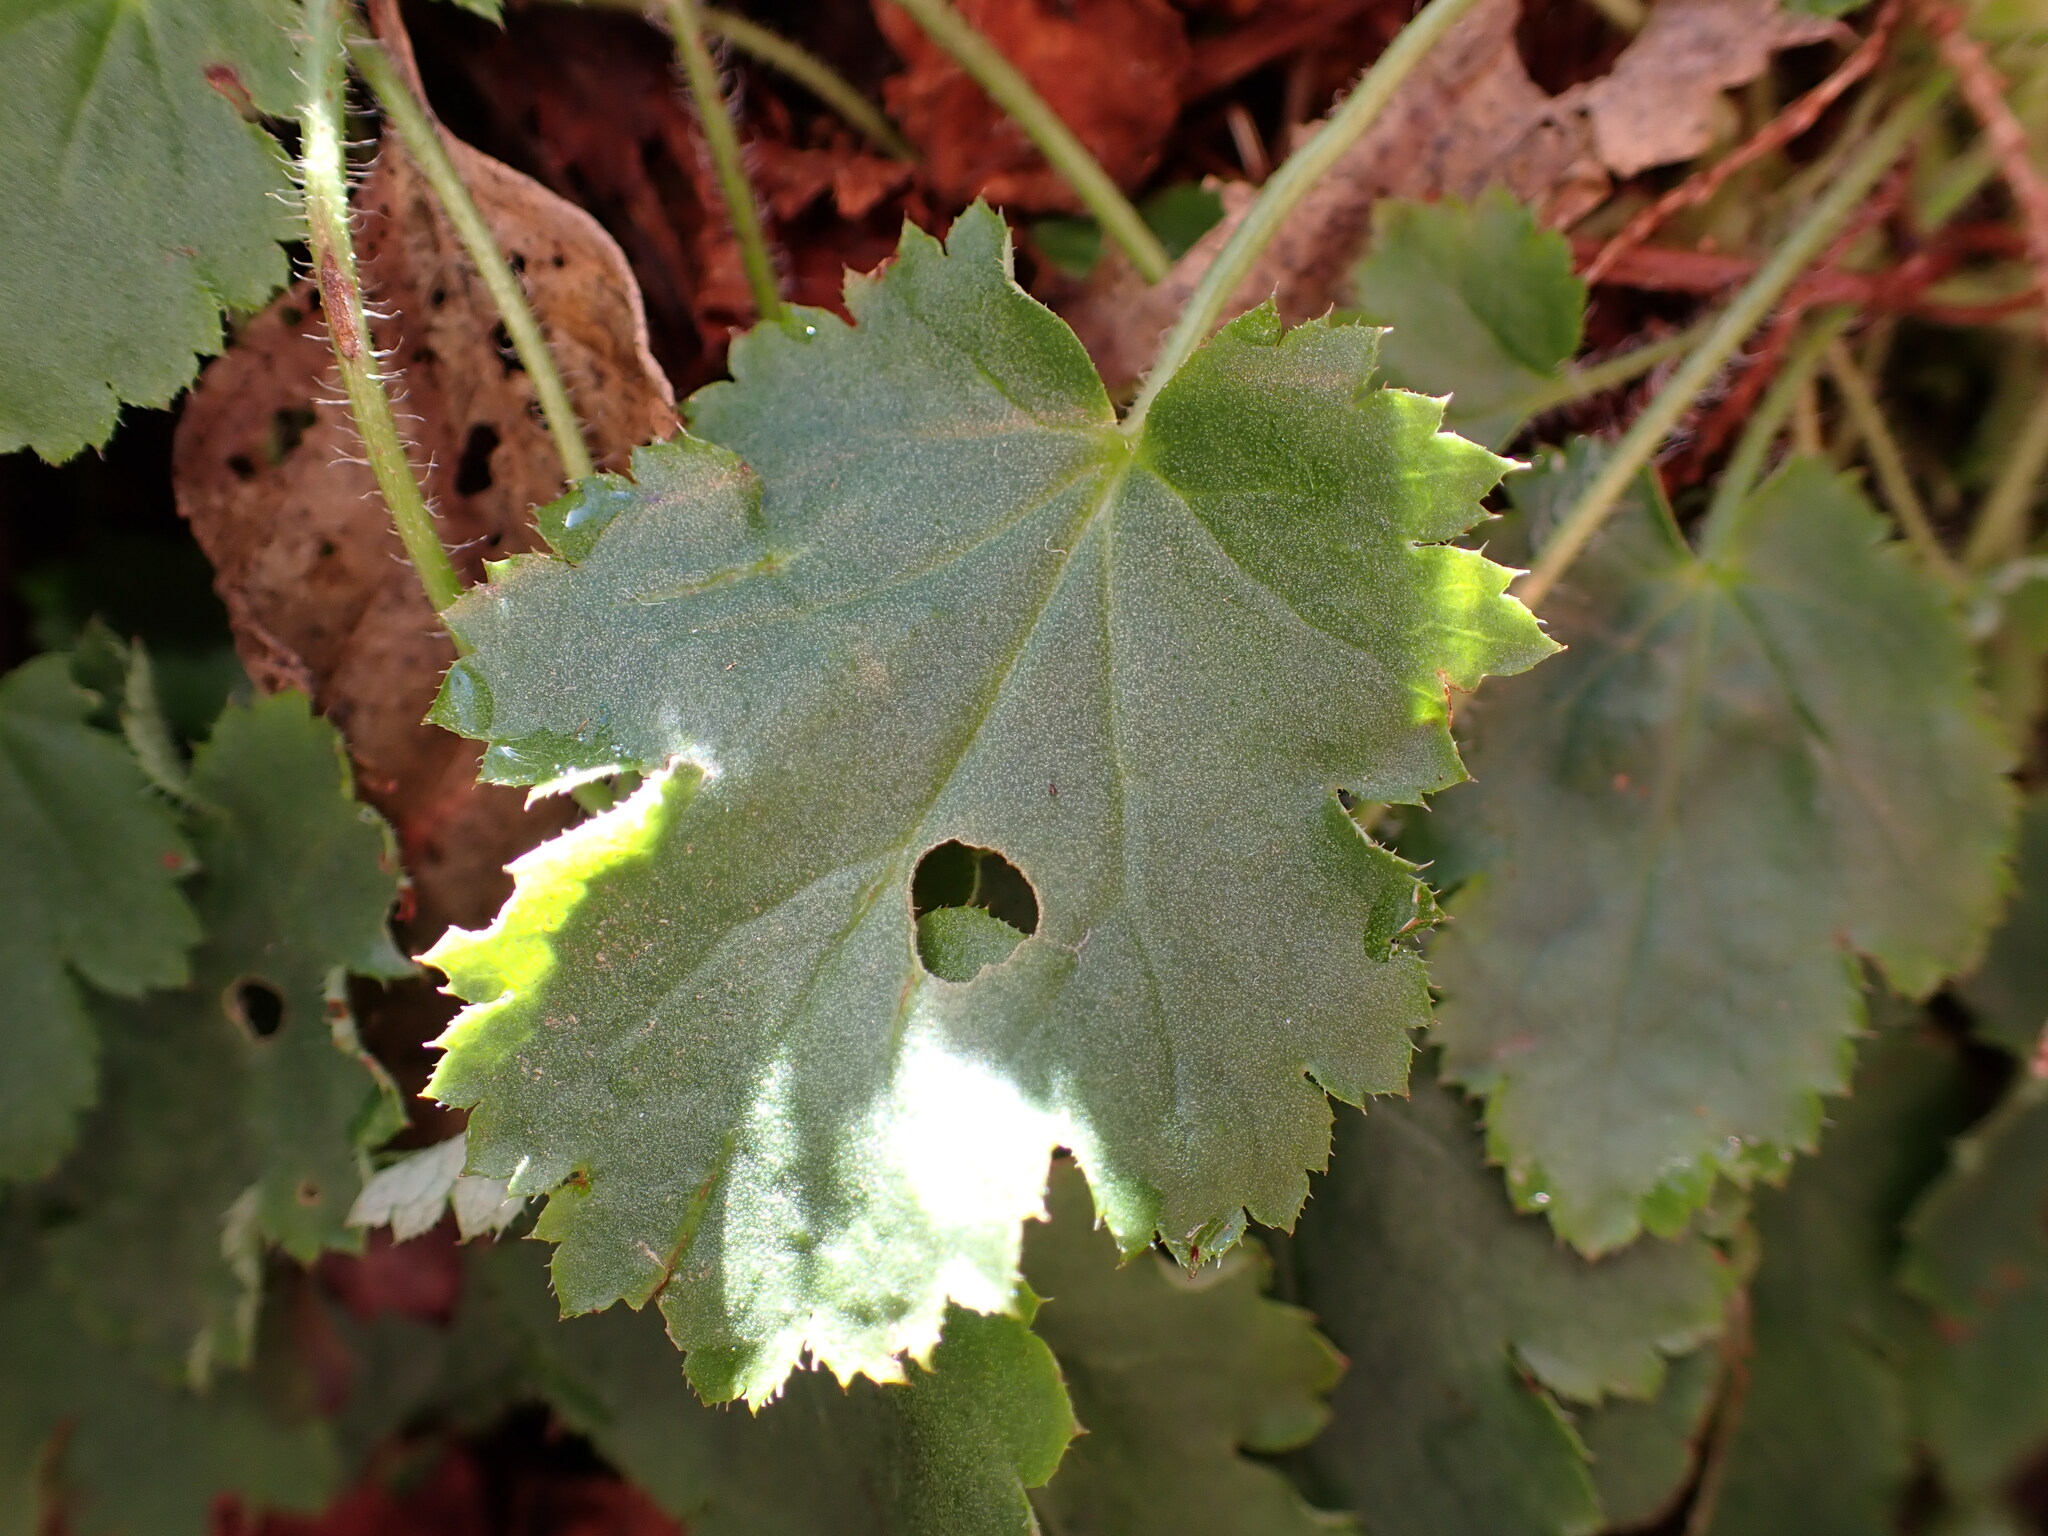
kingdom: Plantae
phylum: Tracheophyta
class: Magnoliopsida
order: Saxifragales
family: Saxifragaceae
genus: Heuchera
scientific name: Heuchera micrantha
